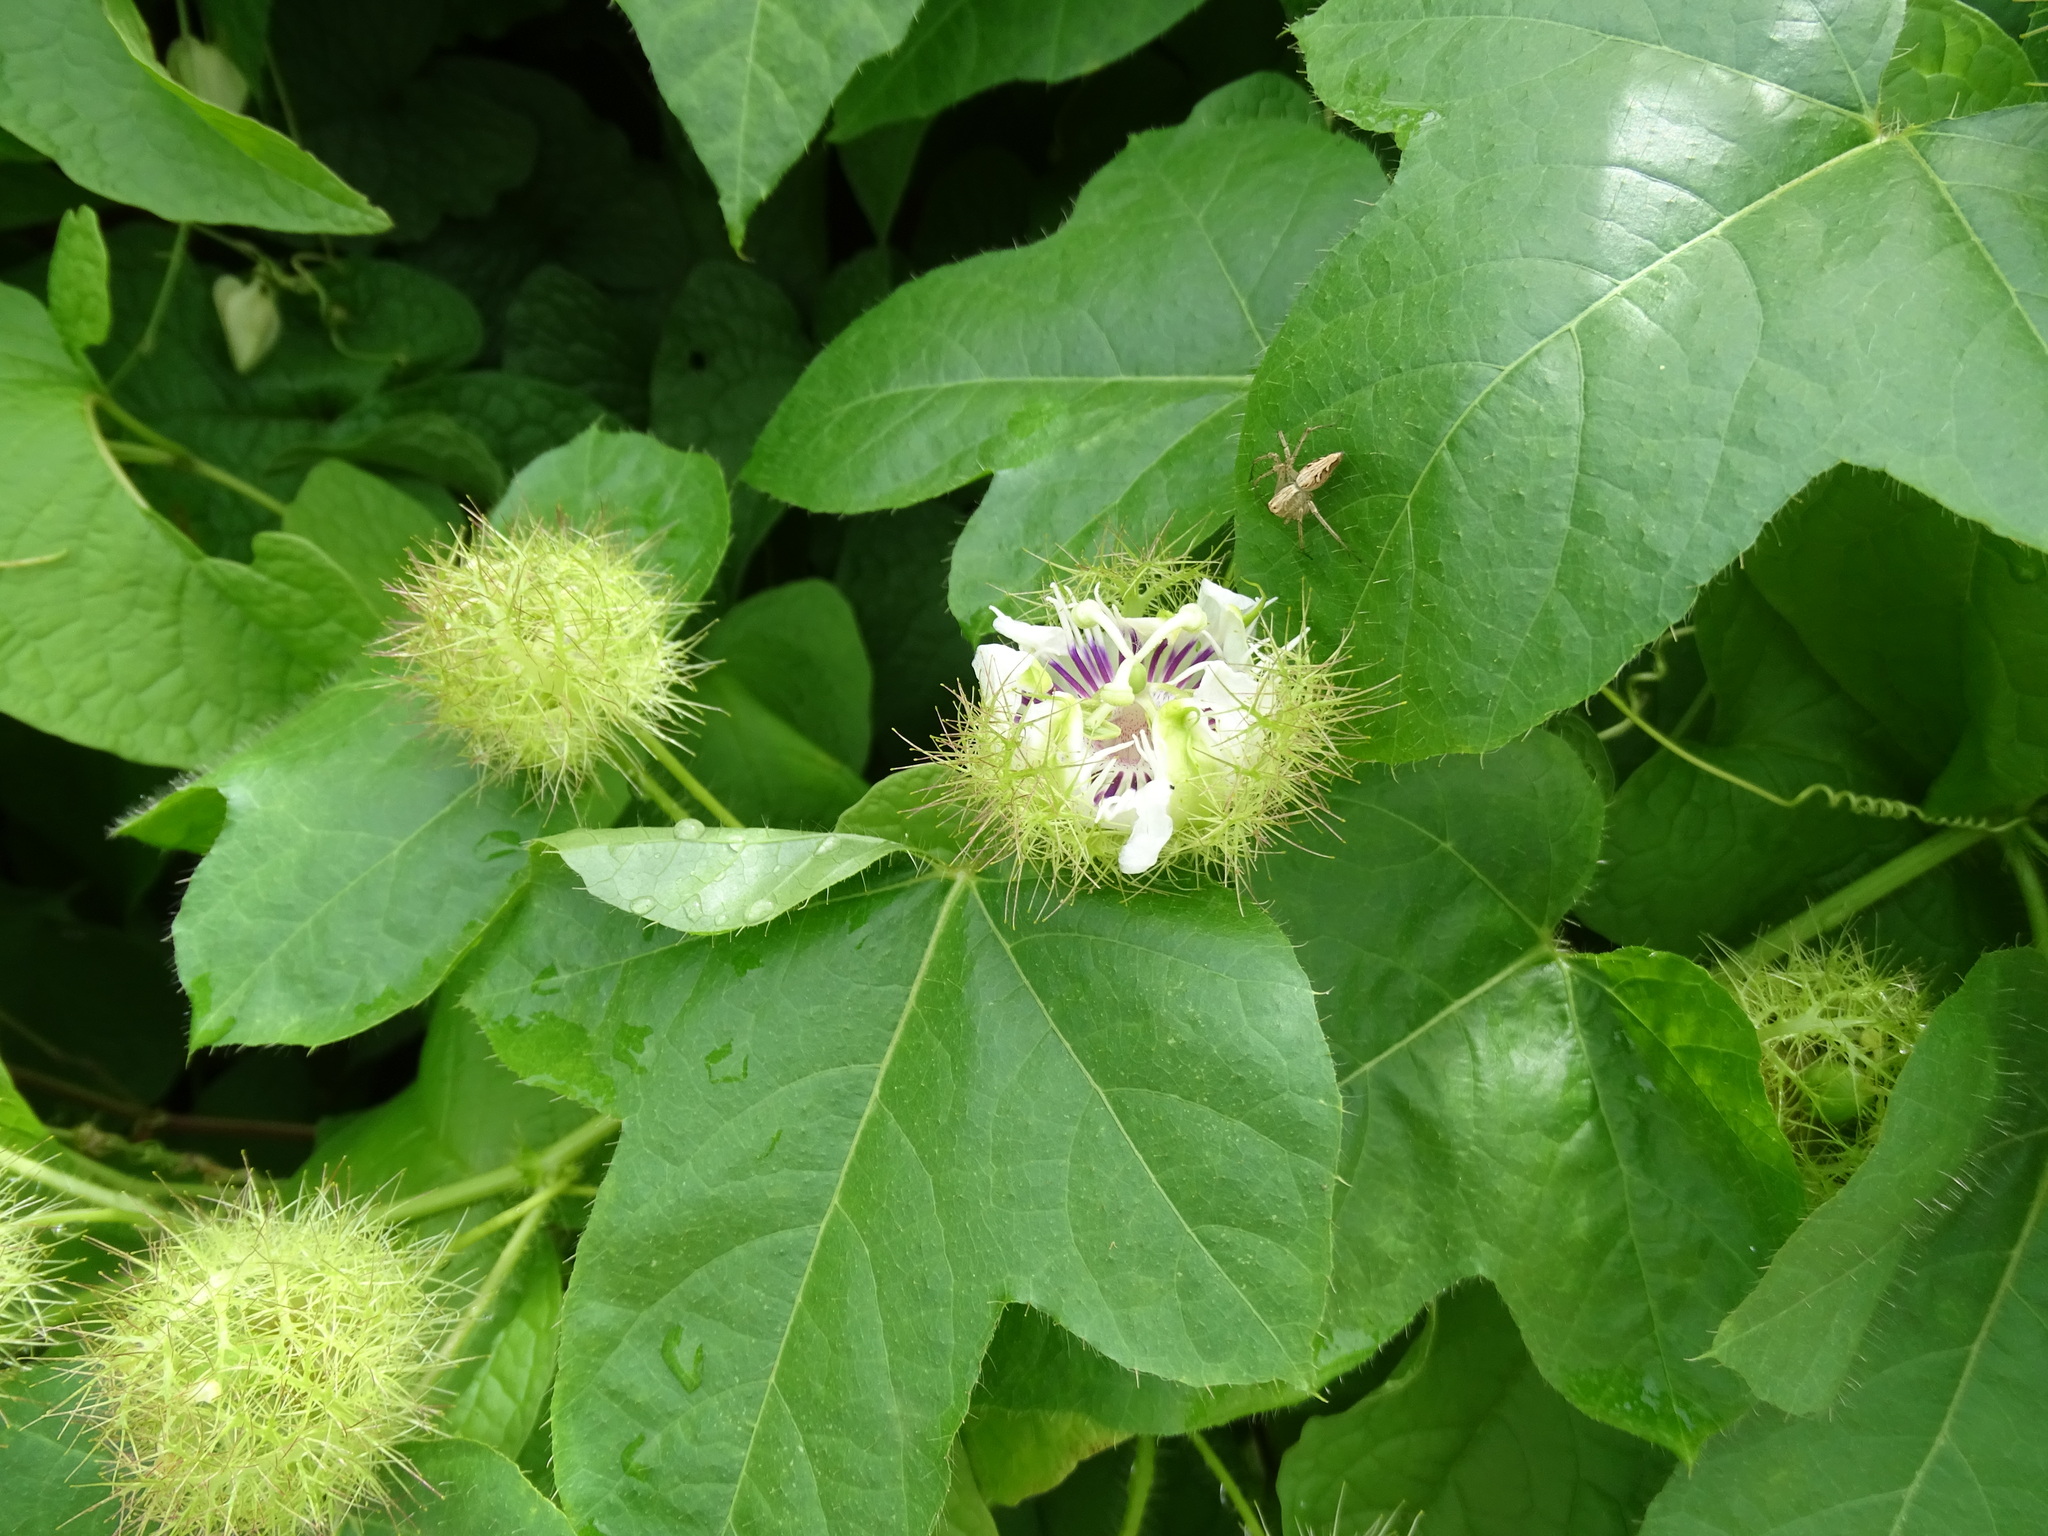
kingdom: Plantae
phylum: Tracheophyta
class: Magnoliopsida
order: Malpighiales
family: Passifloraceae
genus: Passiflora
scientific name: Passiflora vesicaria
